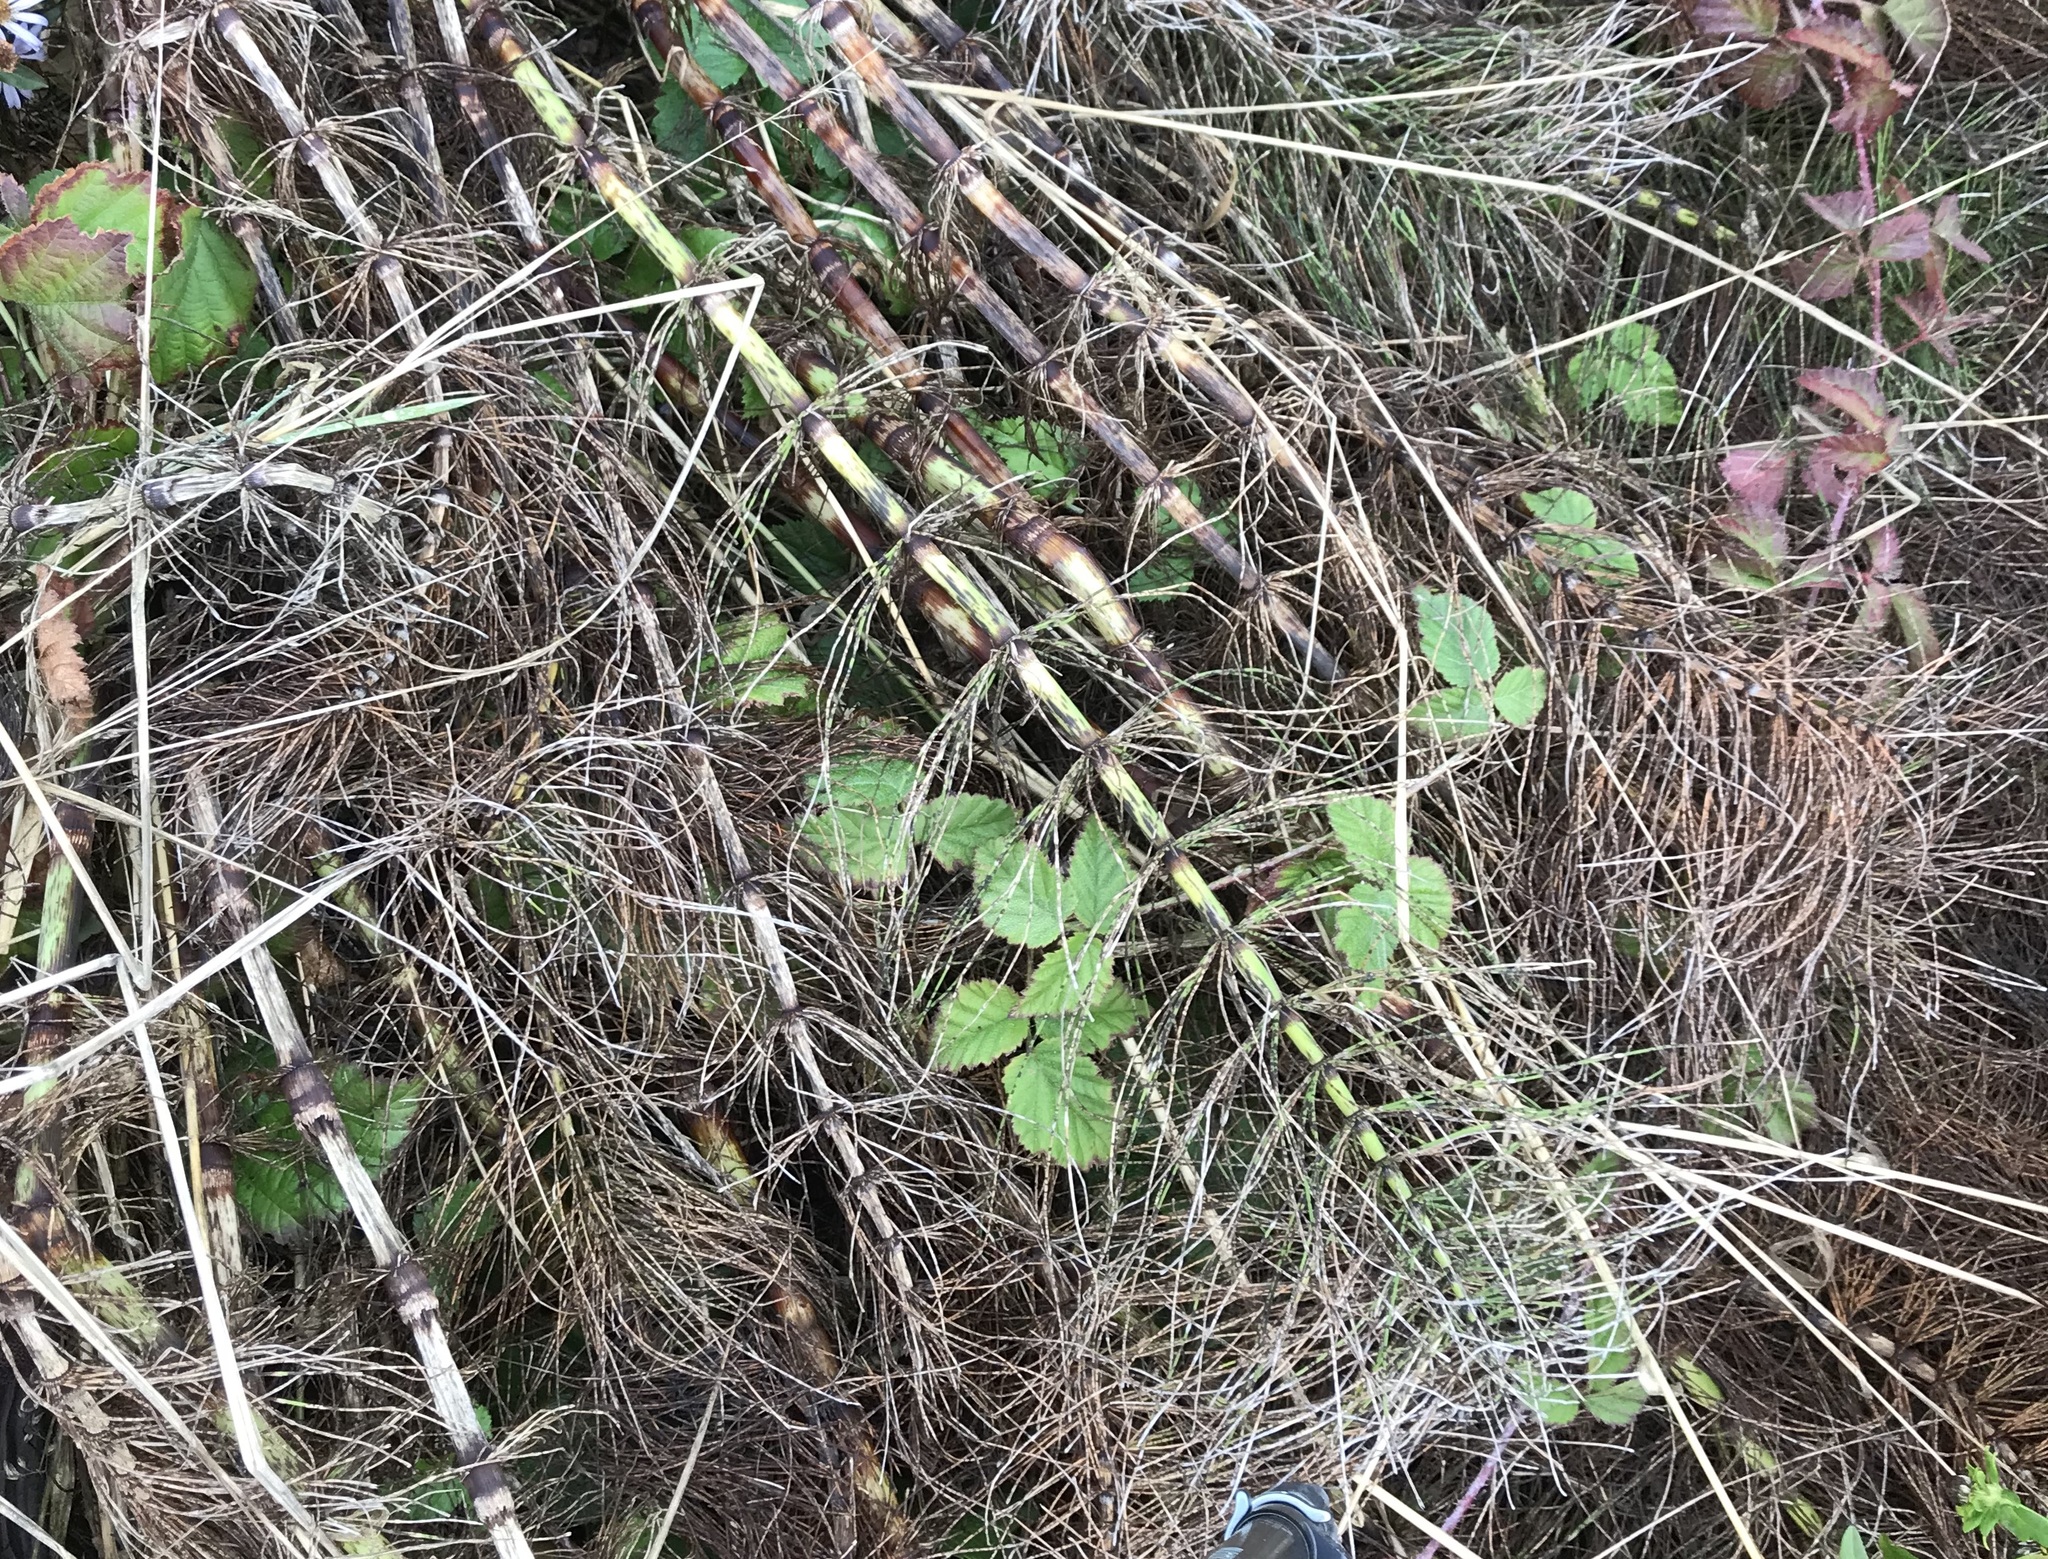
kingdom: Plantae
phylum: Tracheophyta
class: Polypodiopsida
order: Equisetales
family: Equisetaceae
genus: Equisetum
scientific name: Equisetum telmateia
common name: Great horsetail
